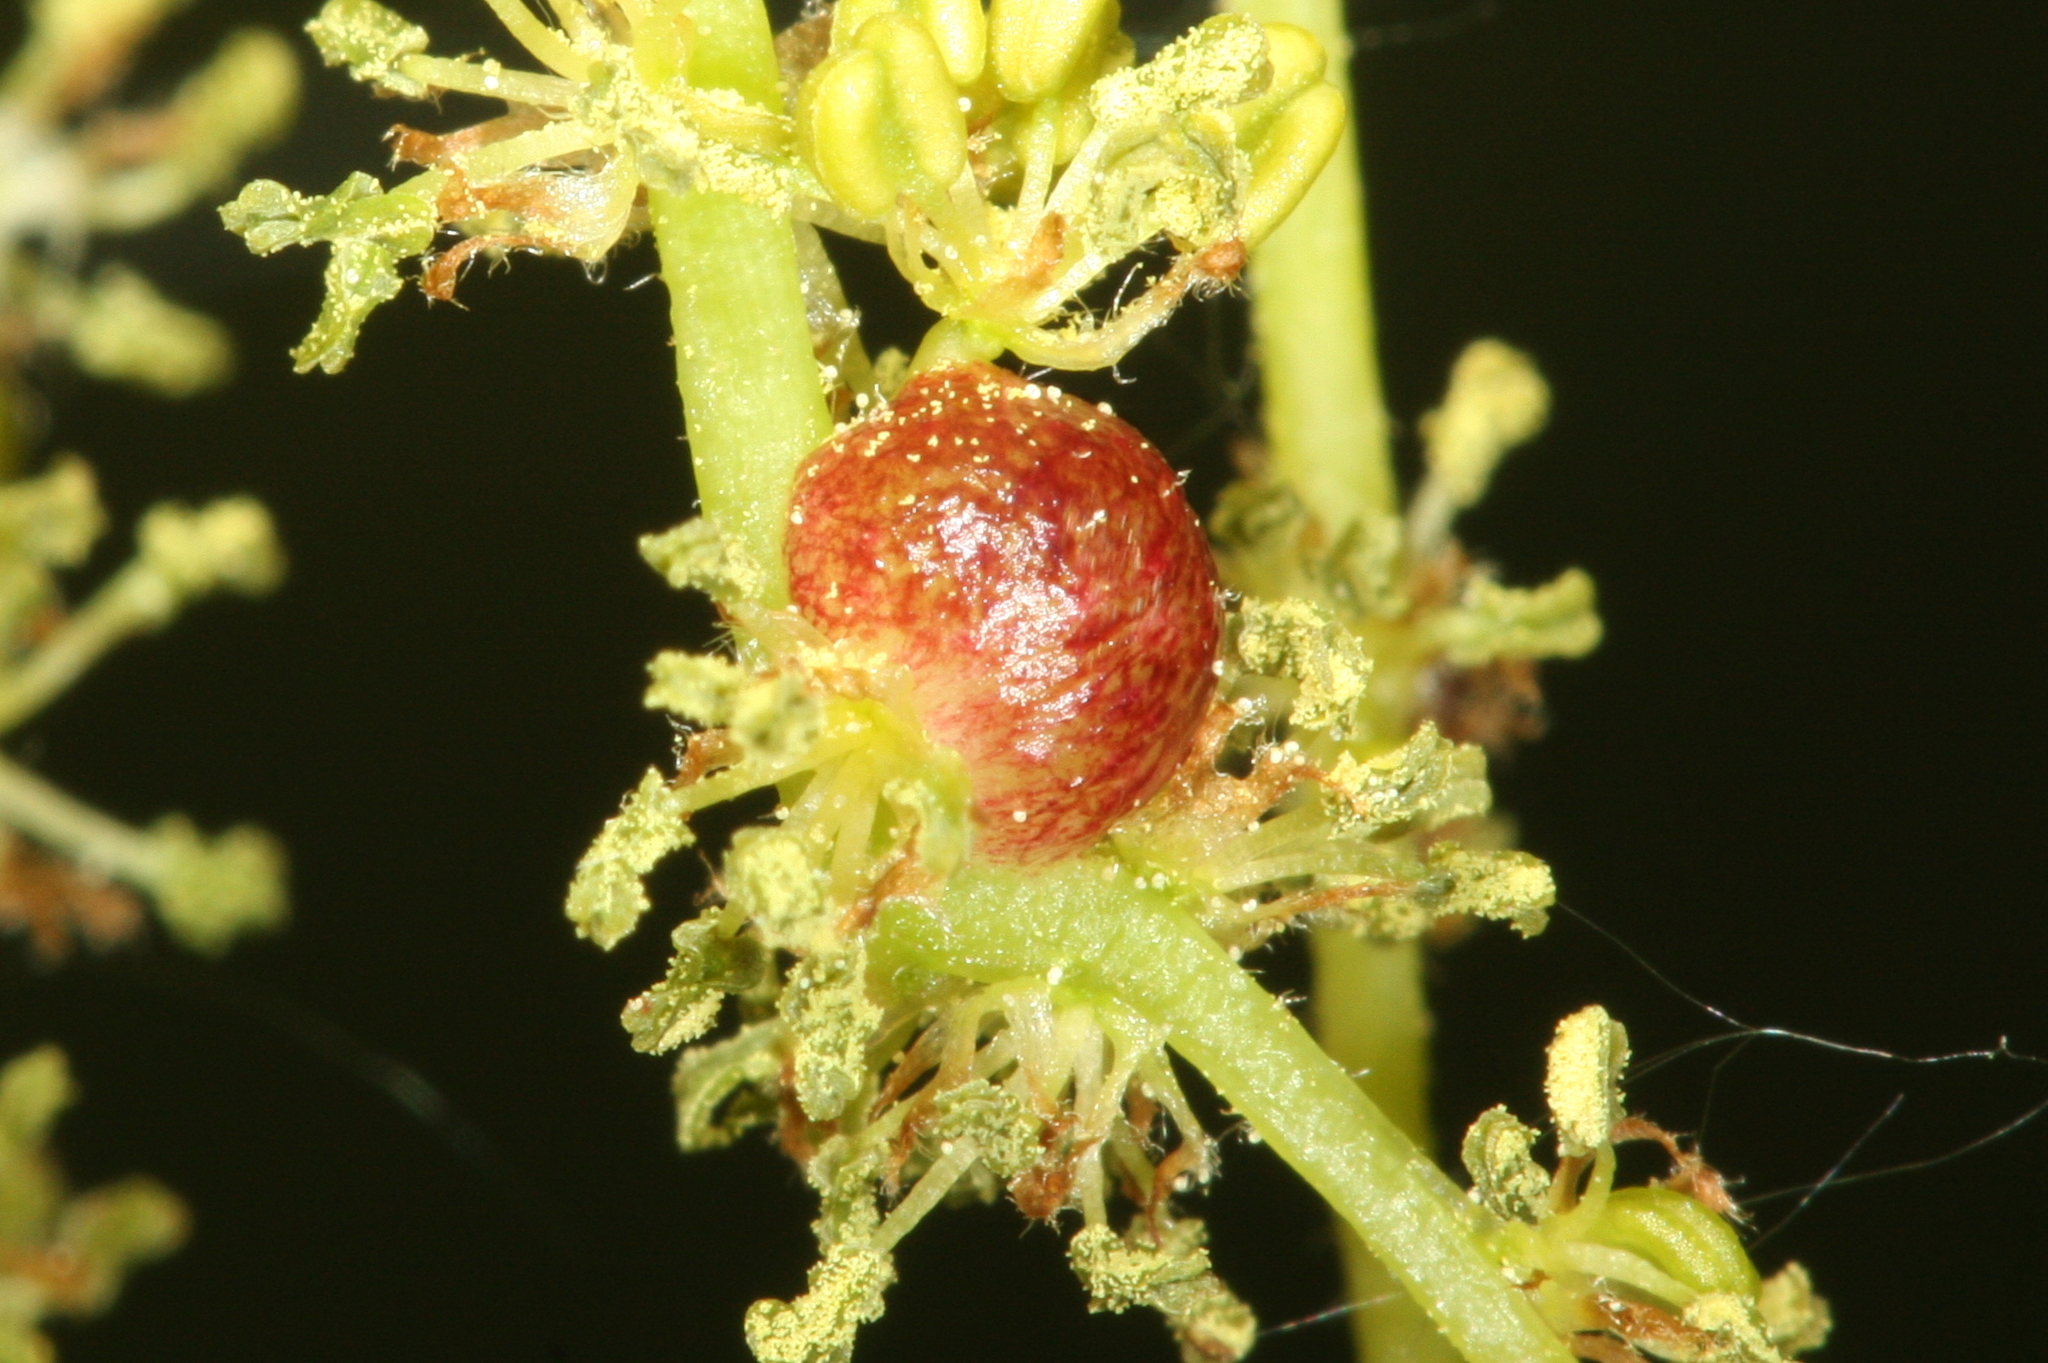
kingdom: Animalia
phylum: Arthropoda
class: Insecta
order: Hymenoptera
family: Cynipidae
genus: Neuroterus
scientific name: Neuroterus quercusbaccarum
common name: Common spangle gall
